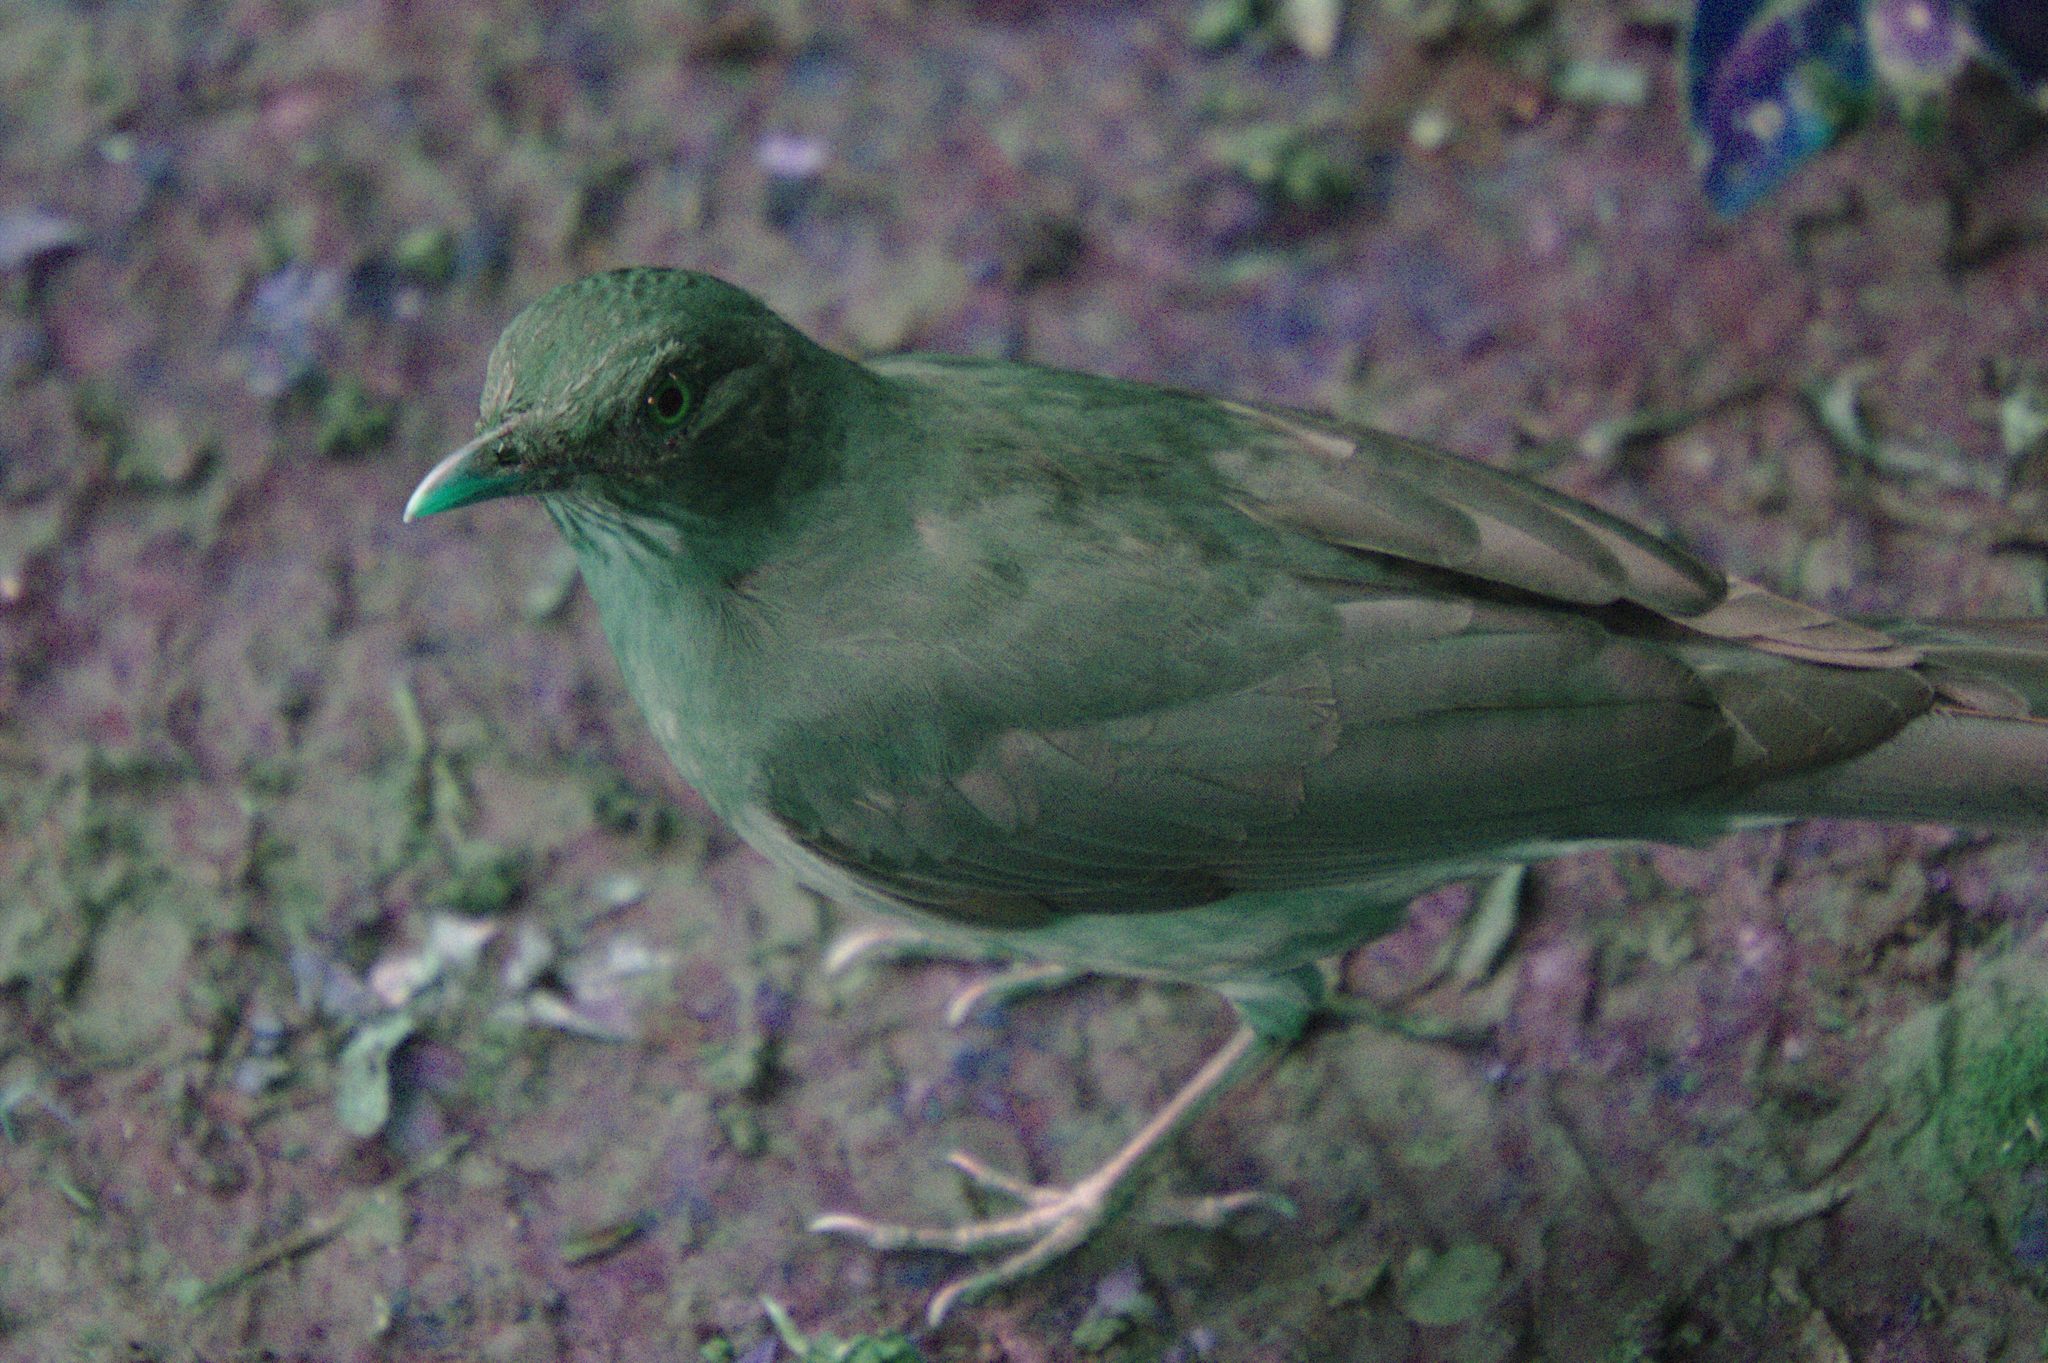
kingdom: Animalia
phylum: Chordata
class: Aves
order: Passeriformes
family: Turdidae
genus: Turdus
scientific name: Turdus grayi
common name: Clay-colored thrush
